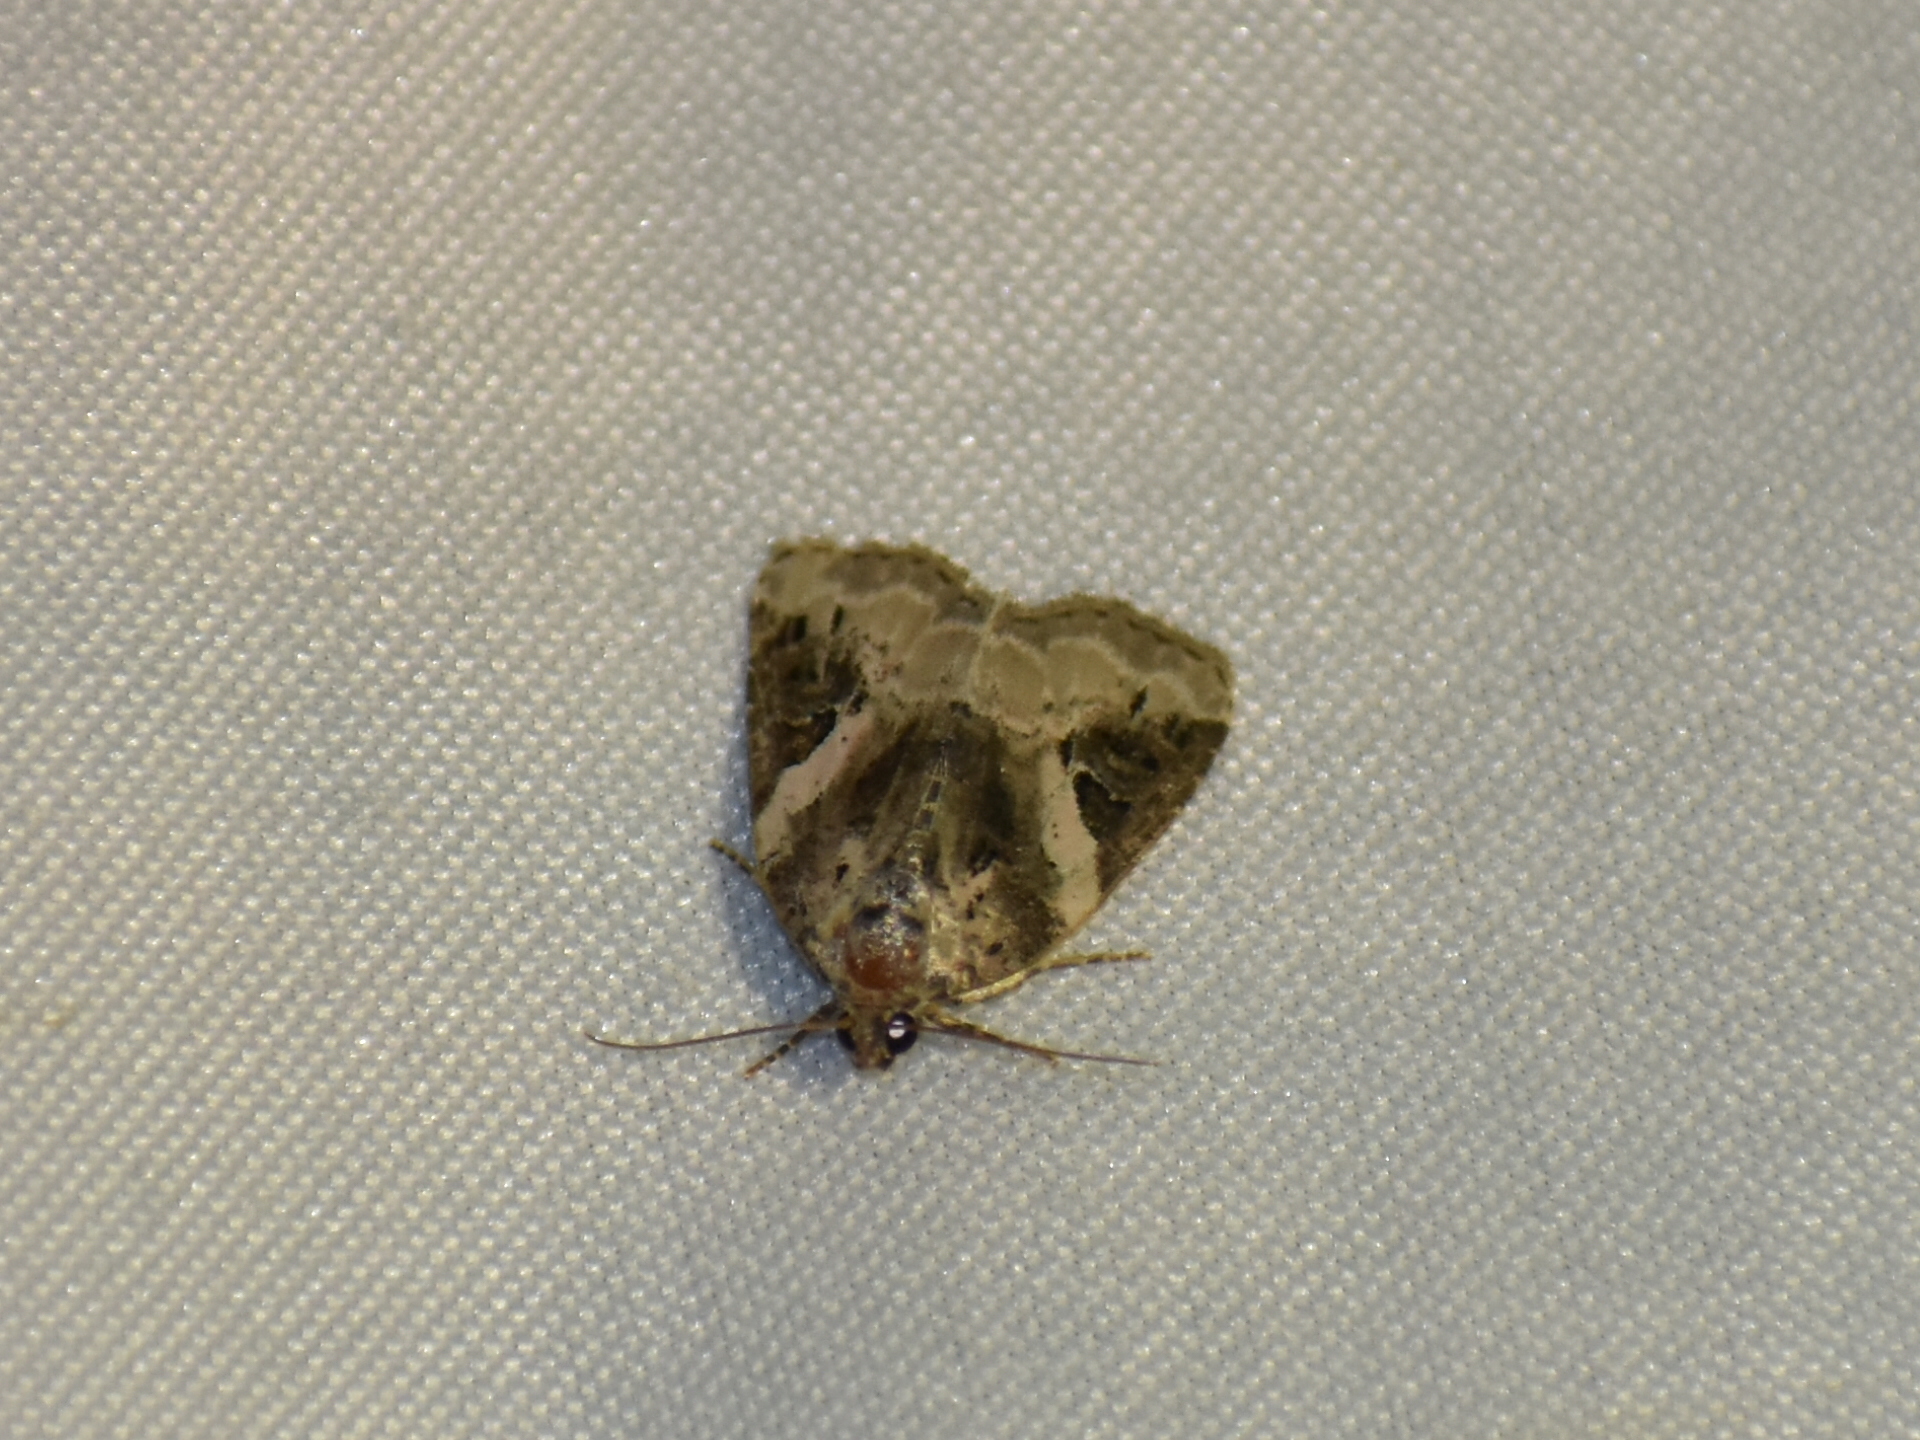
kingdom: Animalia
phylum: Arthropoda
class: Insecta
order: Lepidoptera
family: Noctuidae
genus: Pseudeustrotia
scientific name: Pseudeustrotia carneola
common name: Pink-barred lithacodia moth
